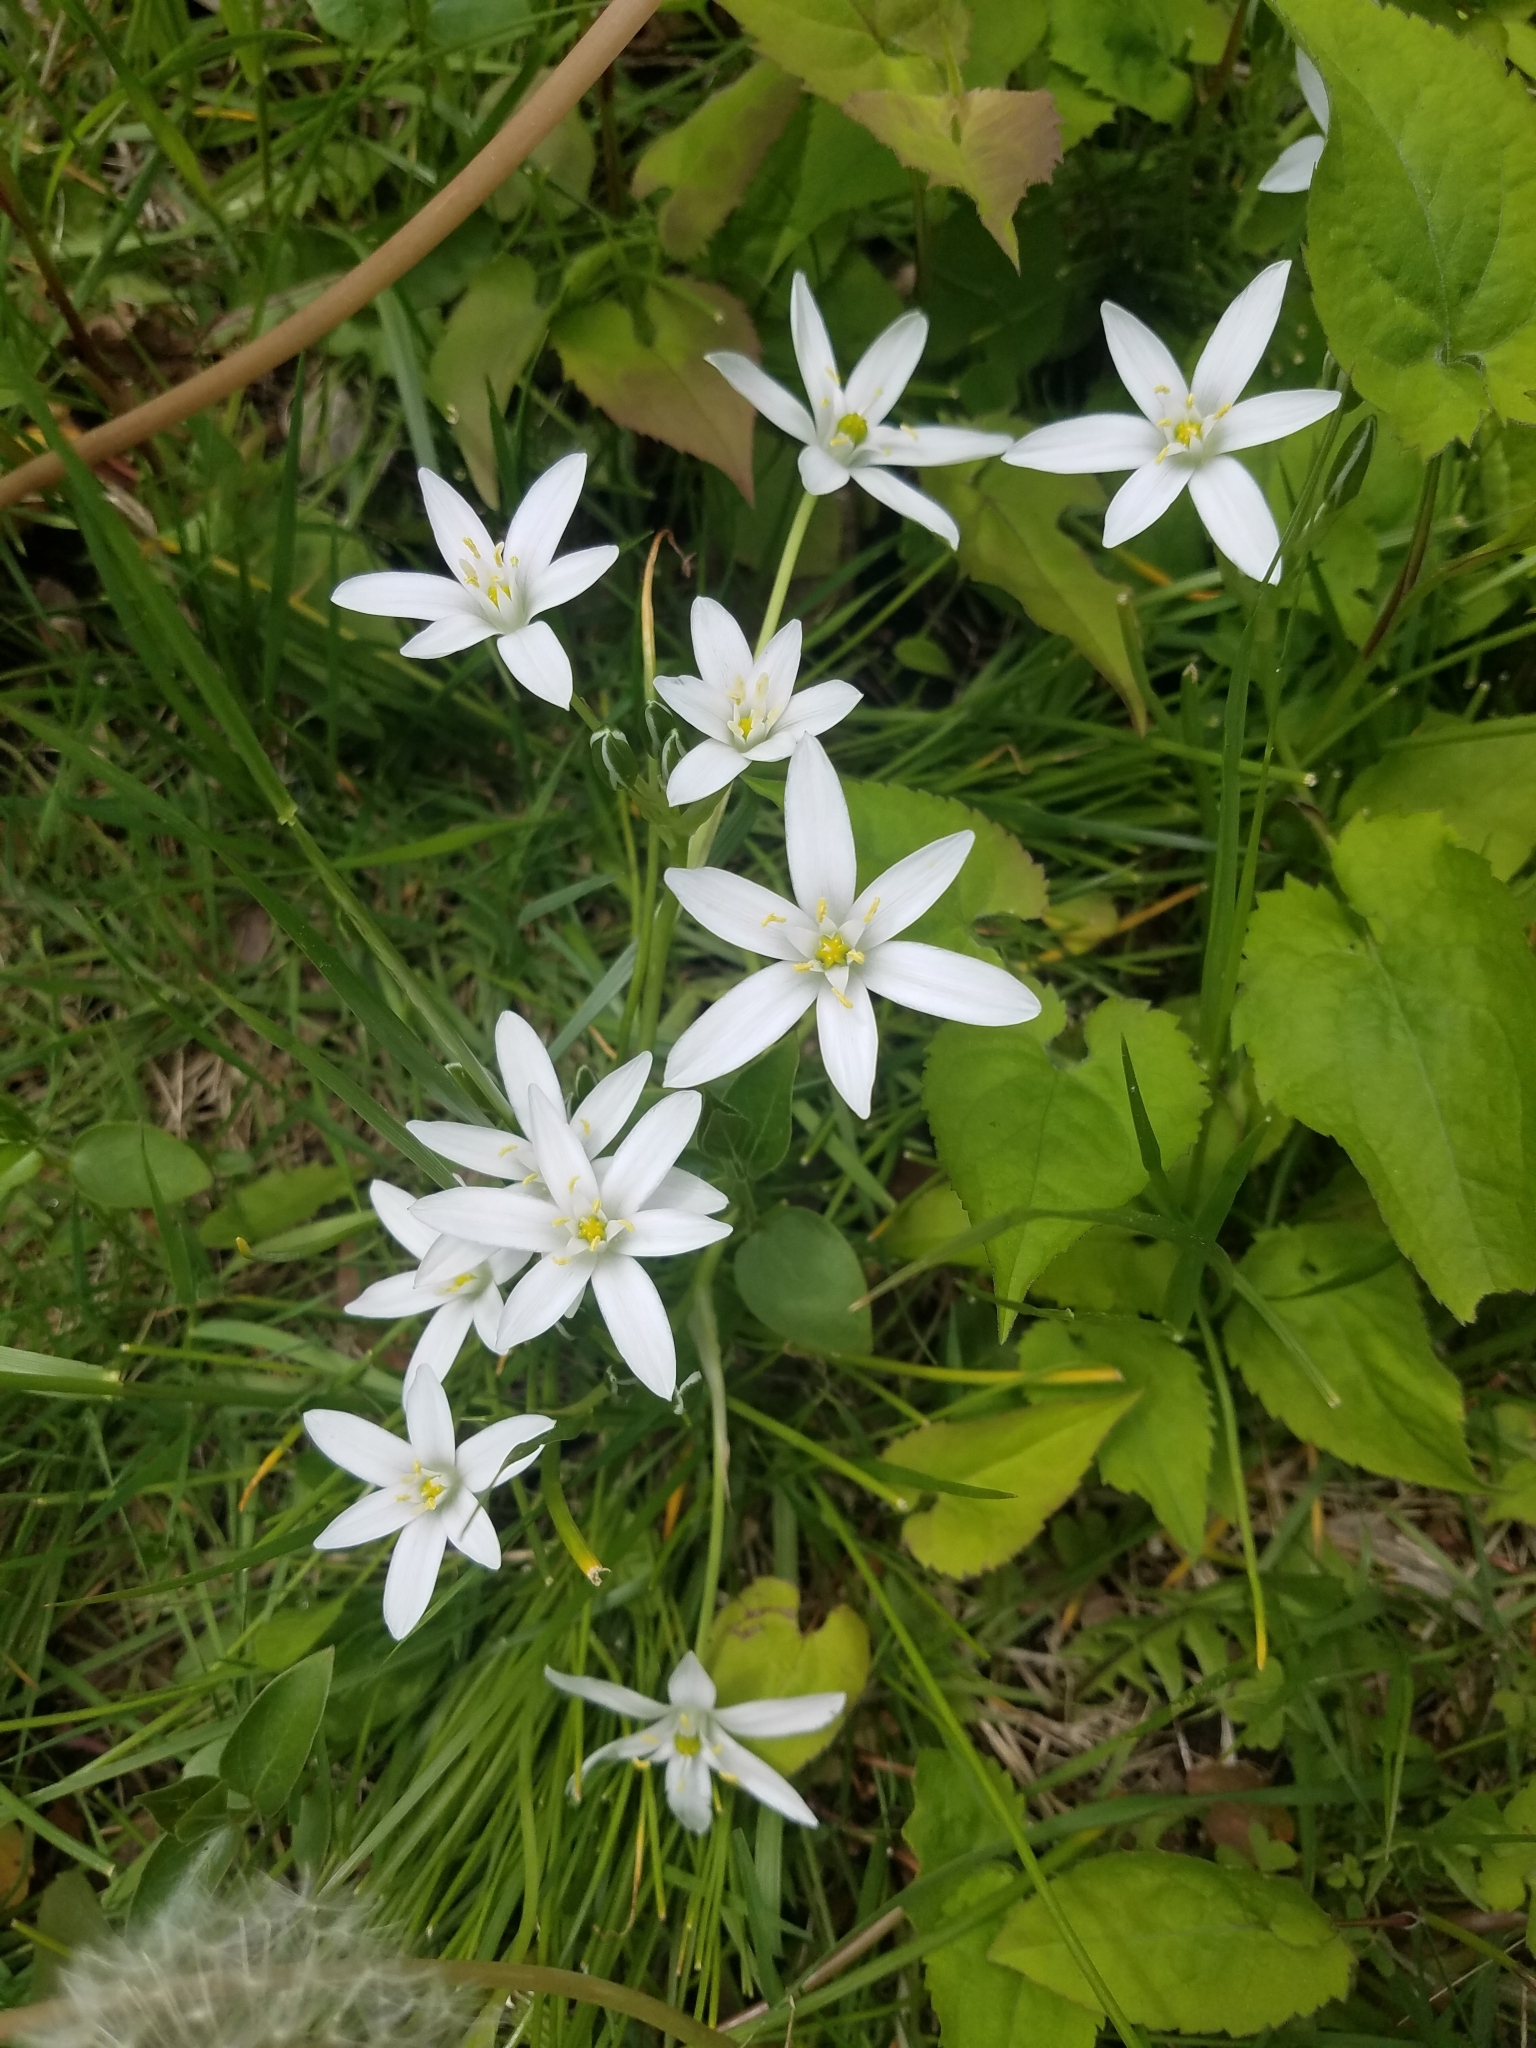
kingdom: Plantae
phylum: Tracheophyta
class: Liliopsida
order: Asparagales
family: Asparagaceae
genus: Ornithogalum
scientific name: Ornithogalum umbellatum
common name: Garden star-of-bethlehem
